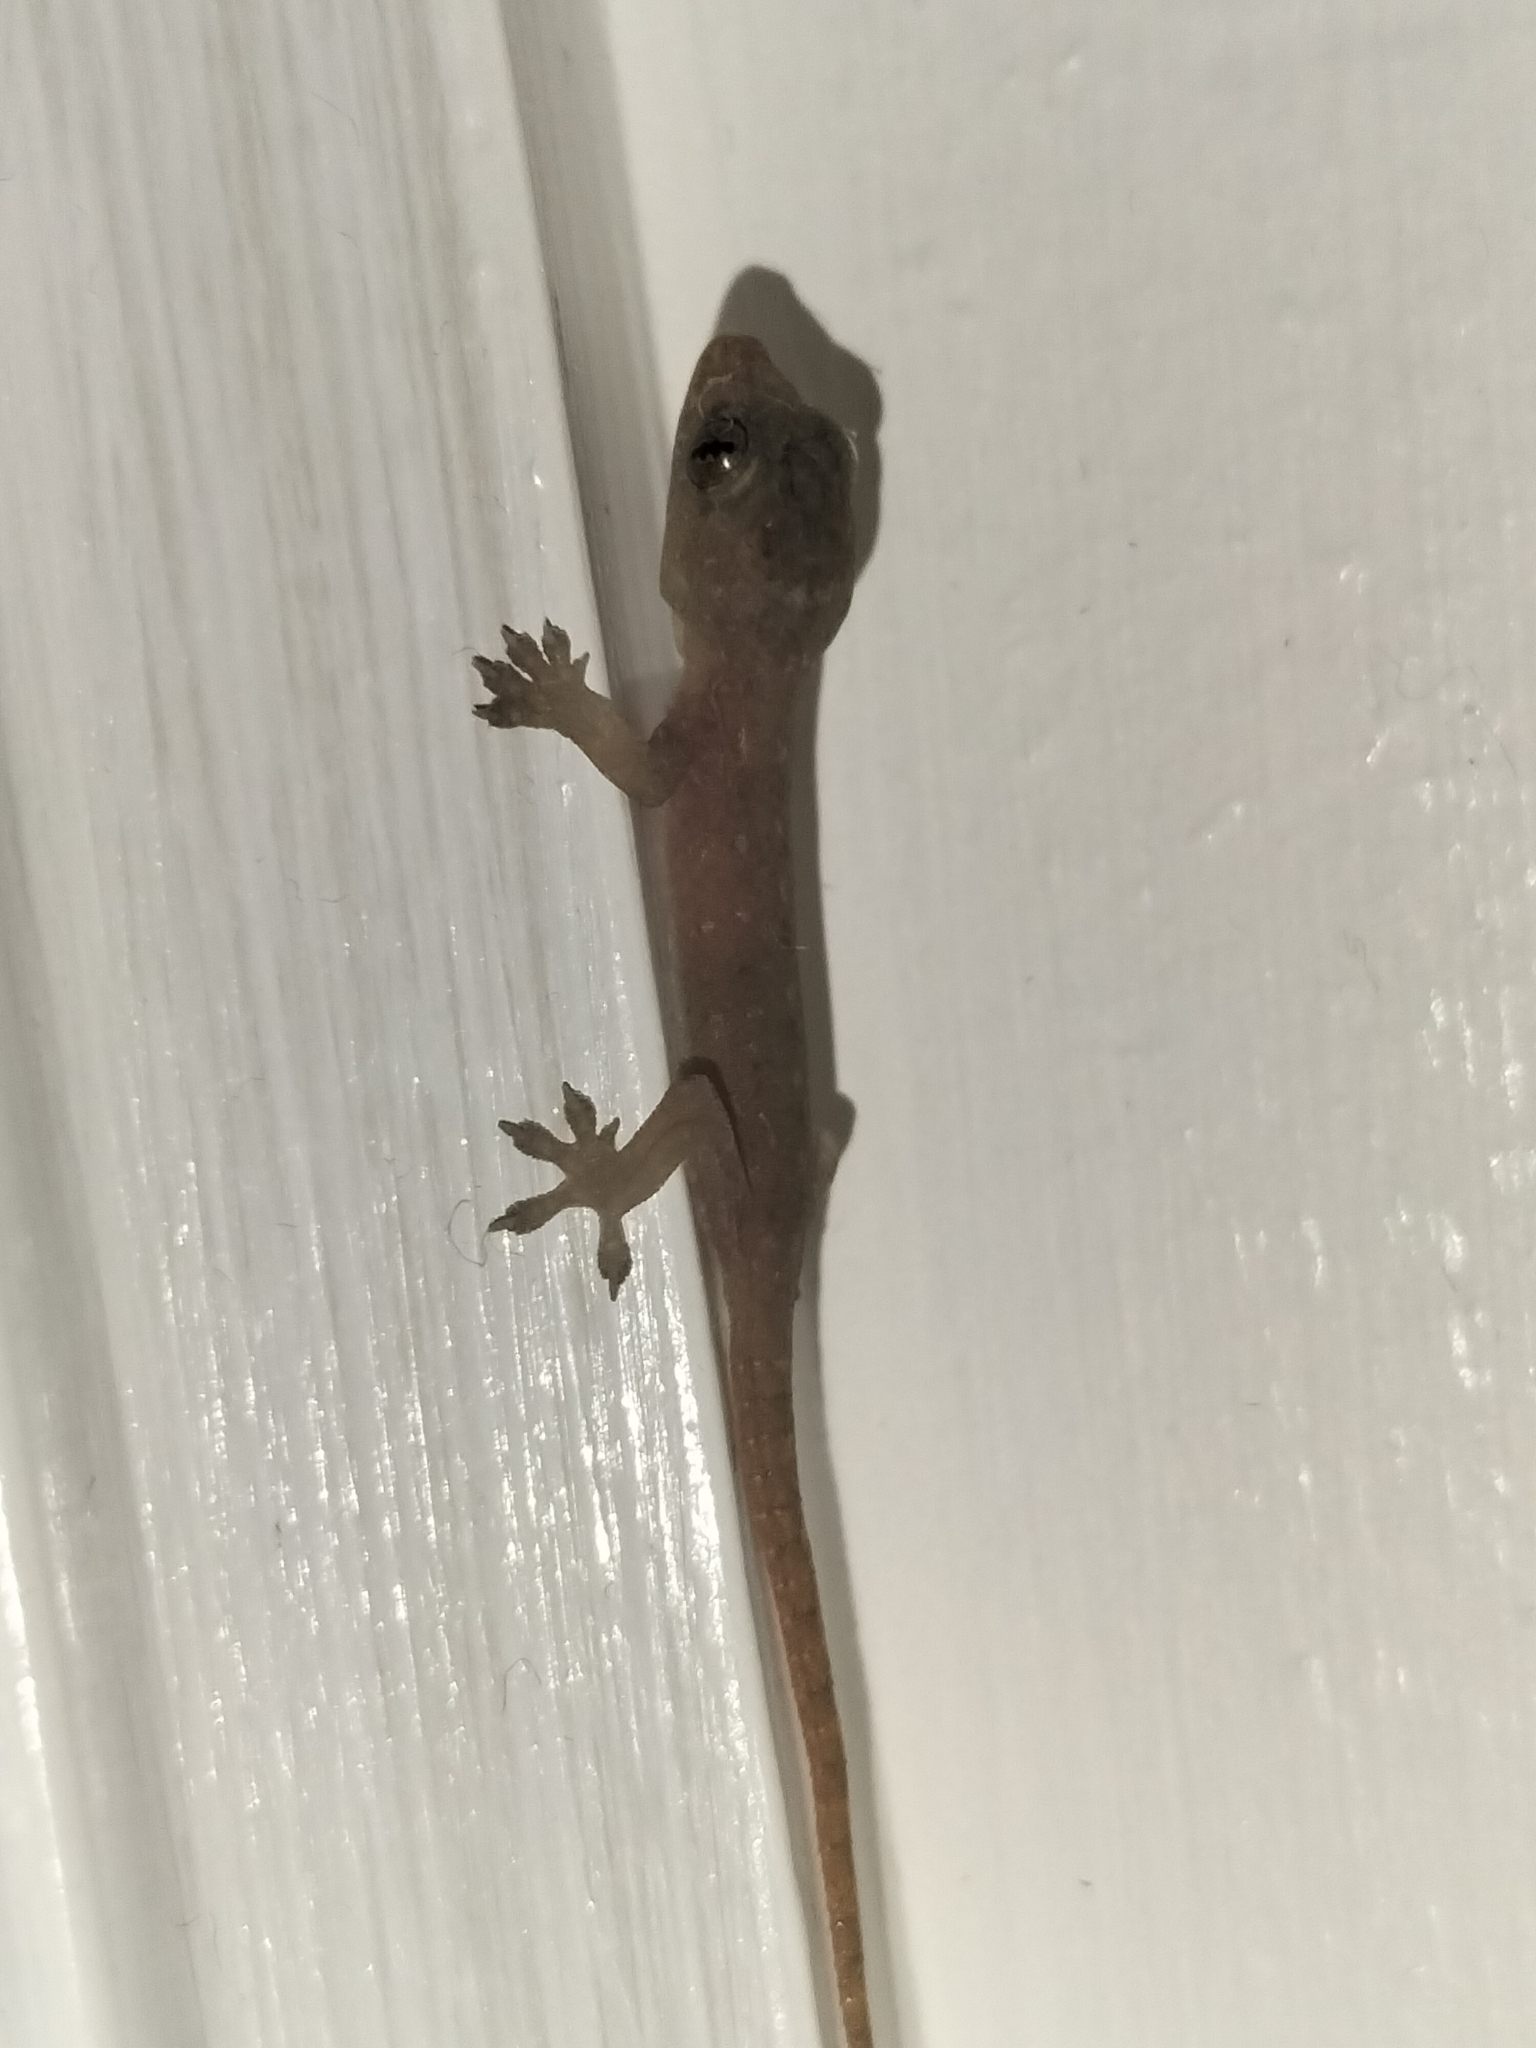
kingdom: Animalia
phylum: Chordata
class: Squamata
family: Gekkonidae
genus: Hemidactylus
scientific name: Hemidactylus frenatus
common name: Common house gecko
